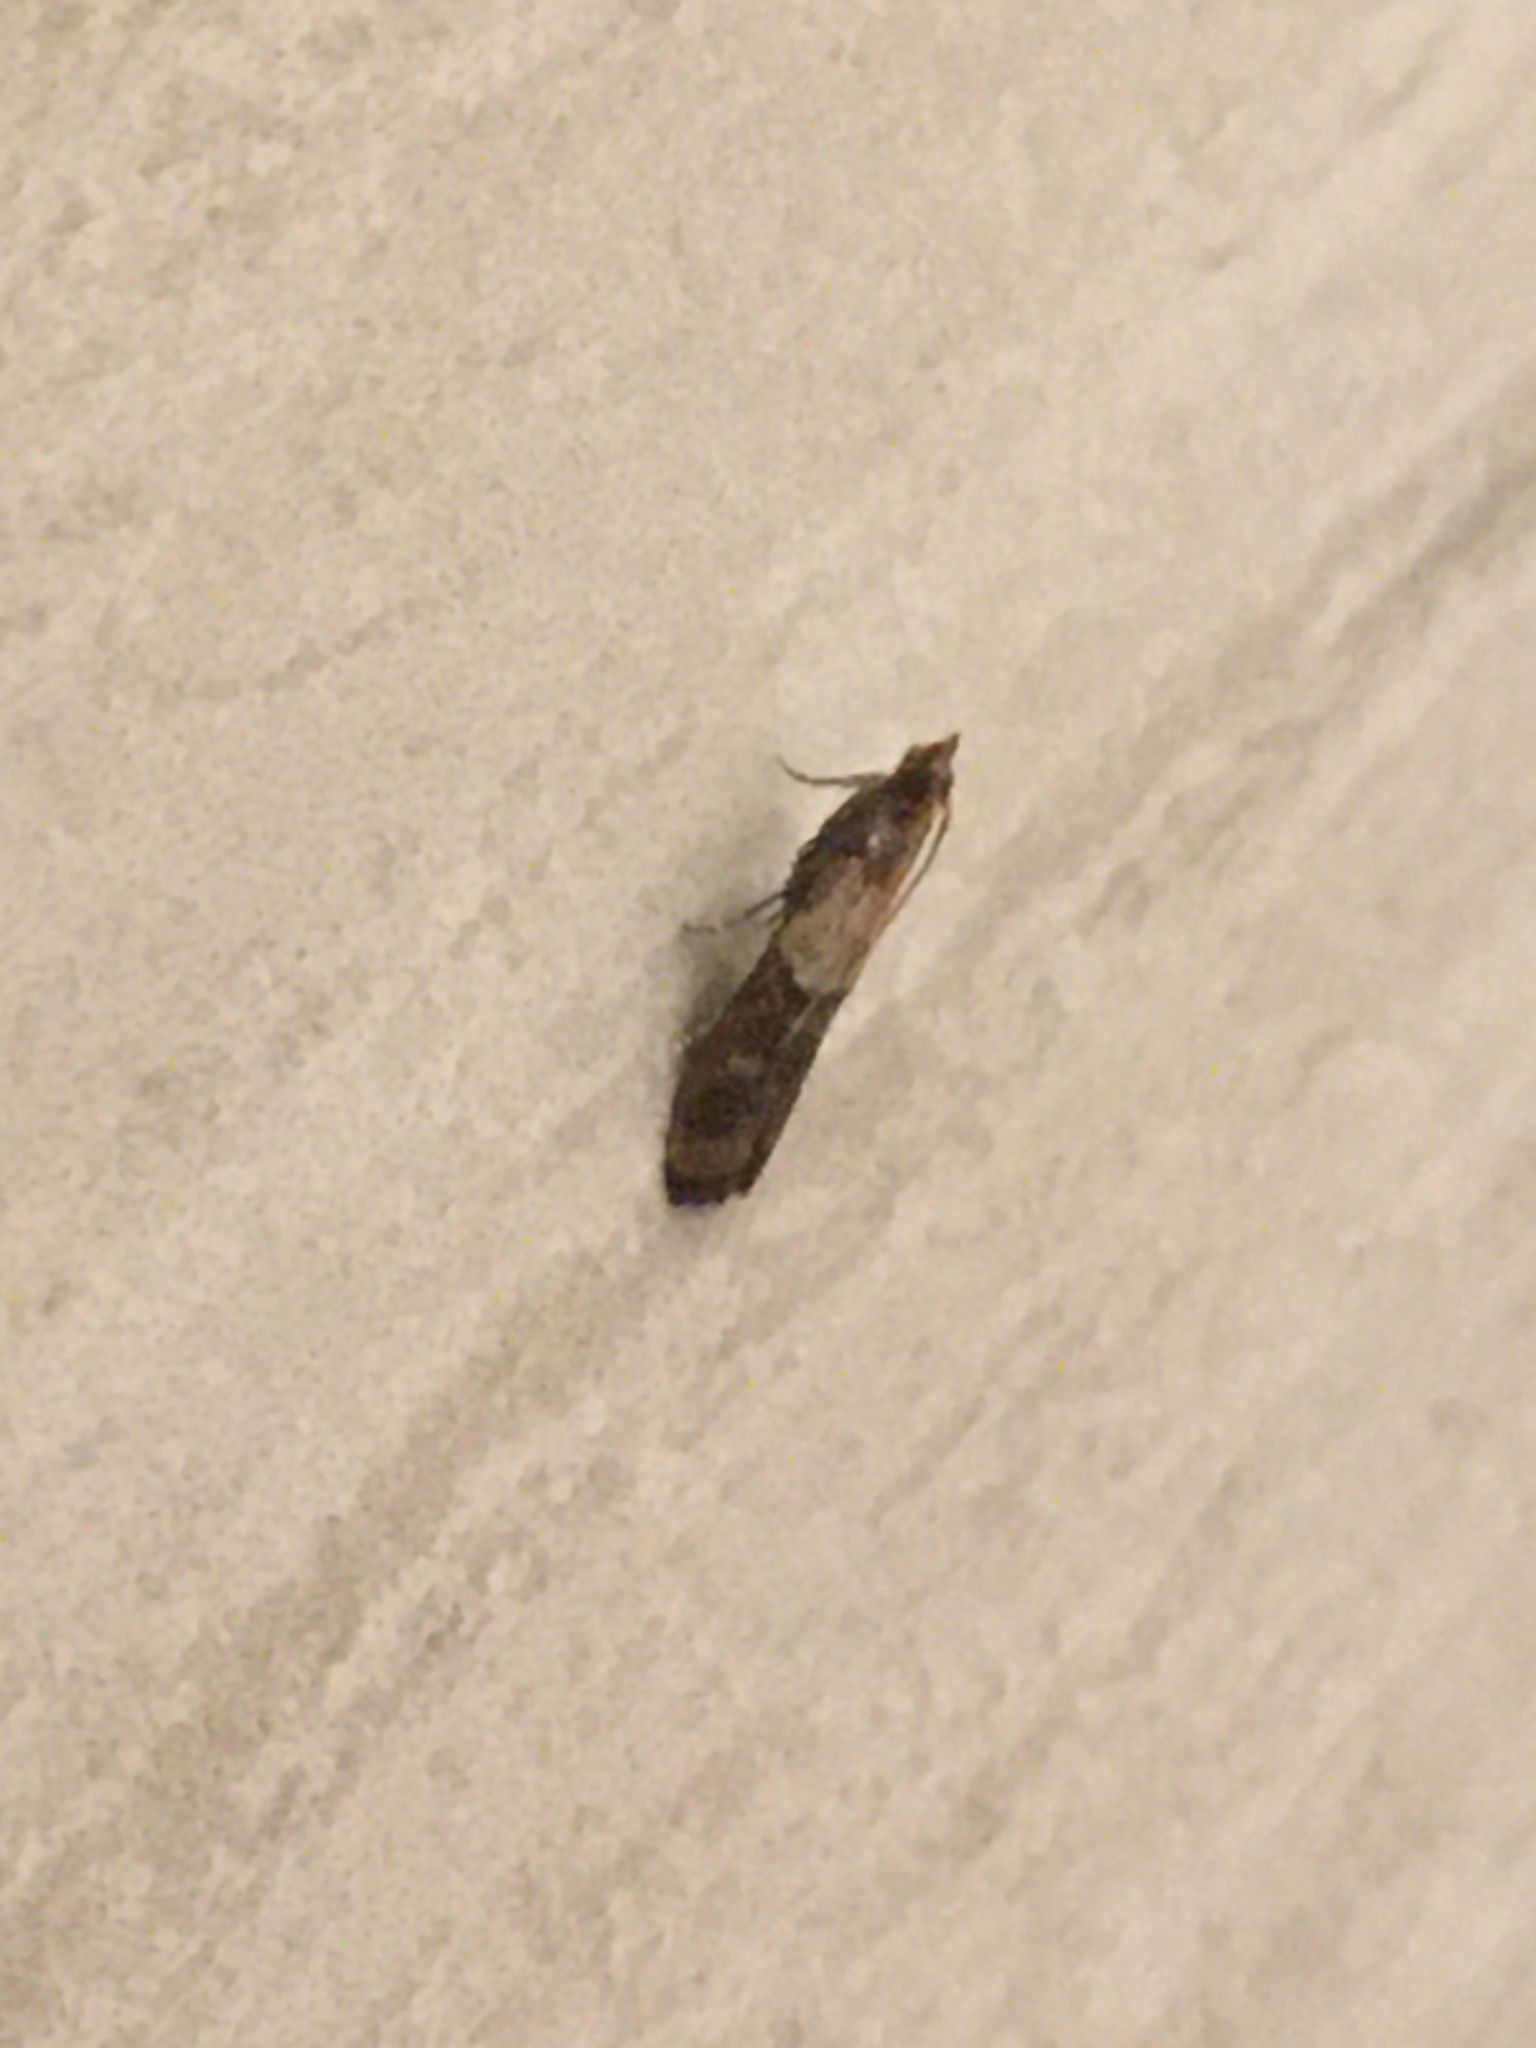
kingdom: Animalia
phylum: Arthropoda
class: Insecta
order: Lepidoptera
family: Pyralidae
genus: Plodia
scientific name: Plodia interpunctella
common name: Indian meal moth
